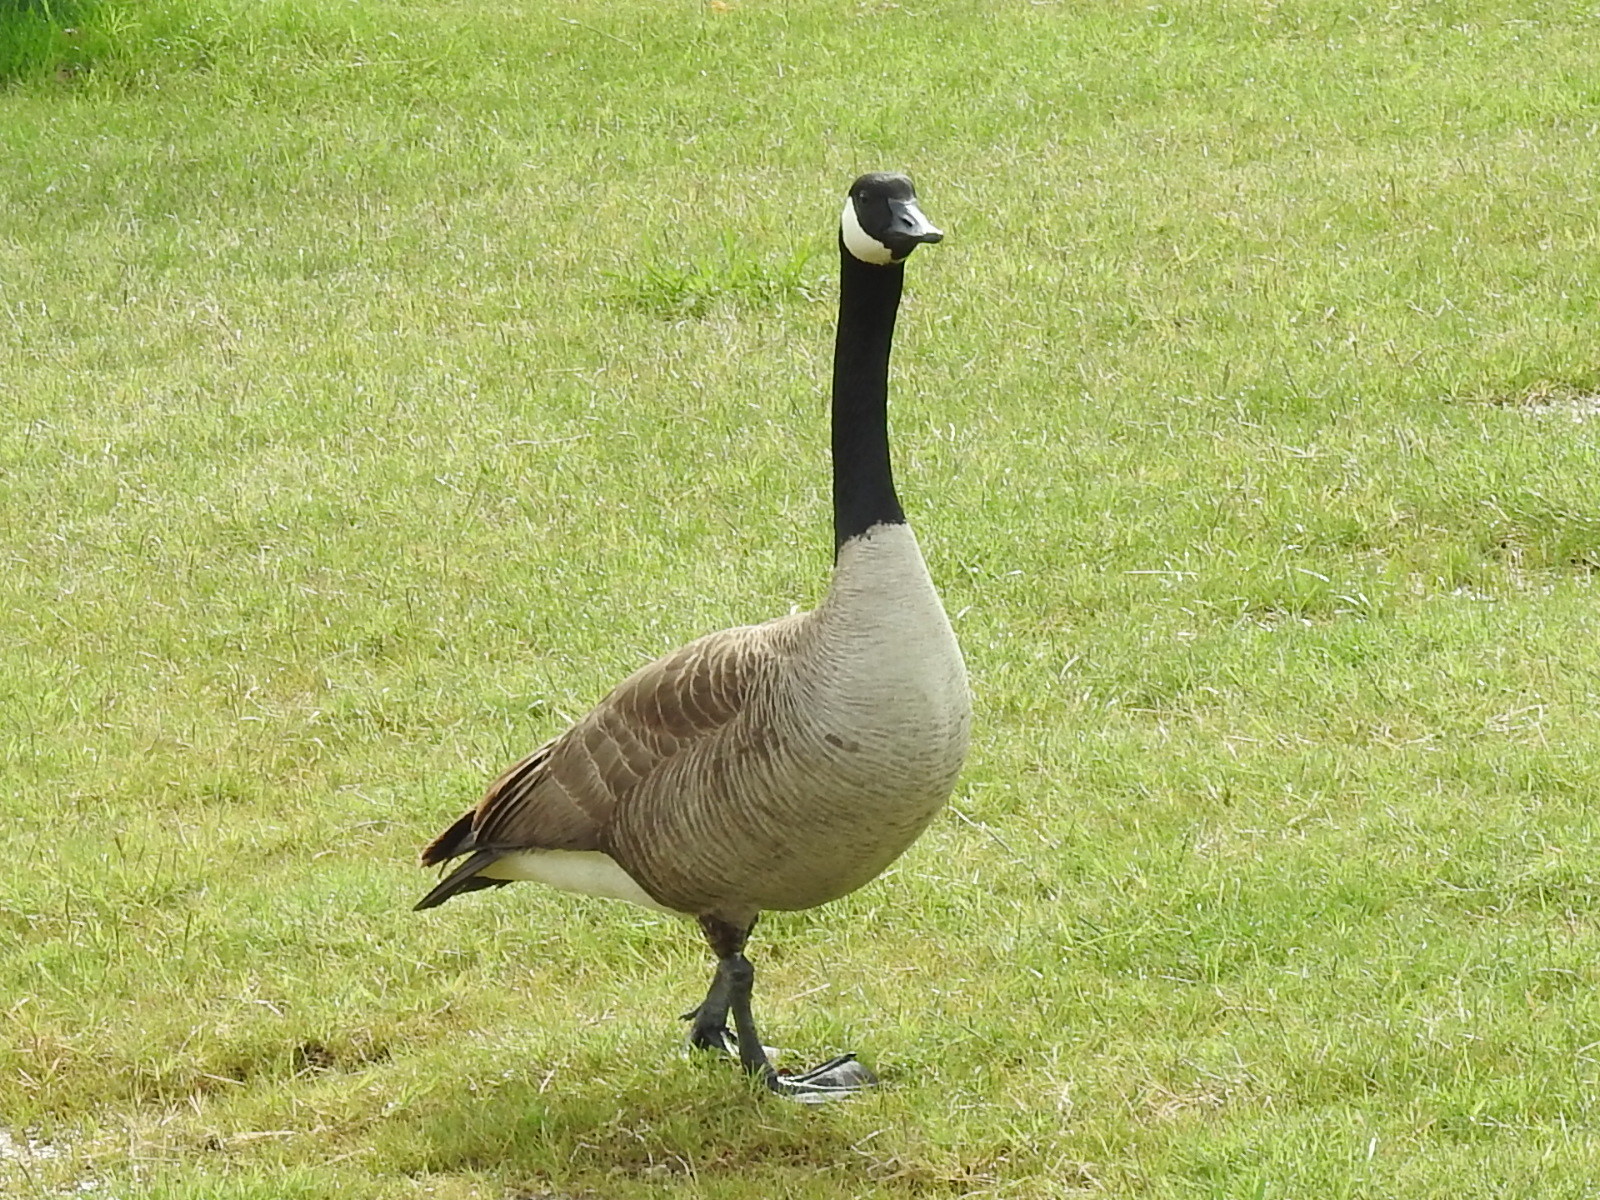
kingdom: Animalia
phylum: Chordata
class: Aves
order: Anseriformes
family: Anatidae
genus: Branta
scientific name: Branta canadensis
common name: Canada goose
